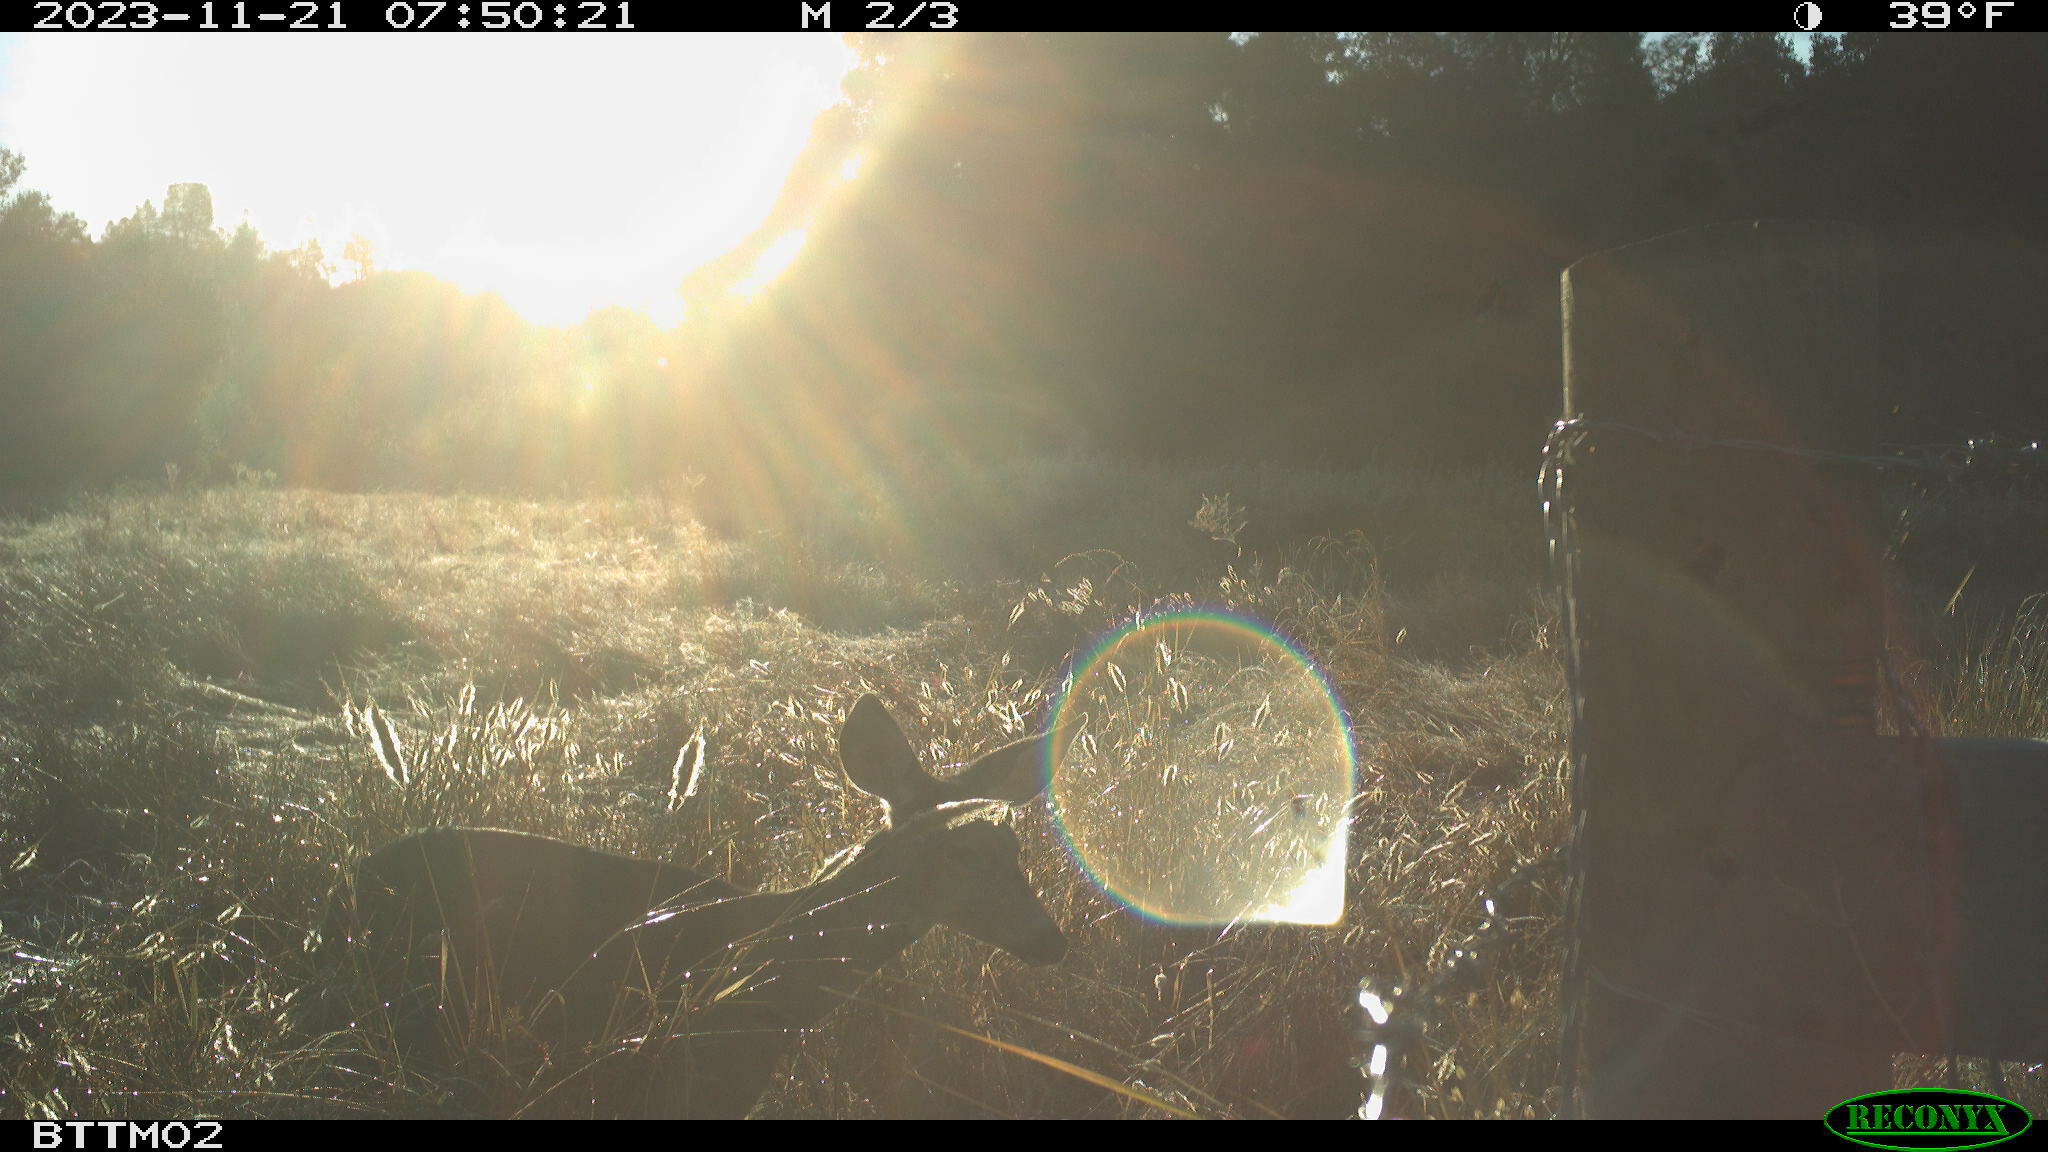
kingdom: Animalia
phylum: Chordata
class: Mammalia
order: Artiodactyla
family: Cervidae
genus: Odocoileus
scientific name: Odocoileus hemionus
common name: Mule deer
